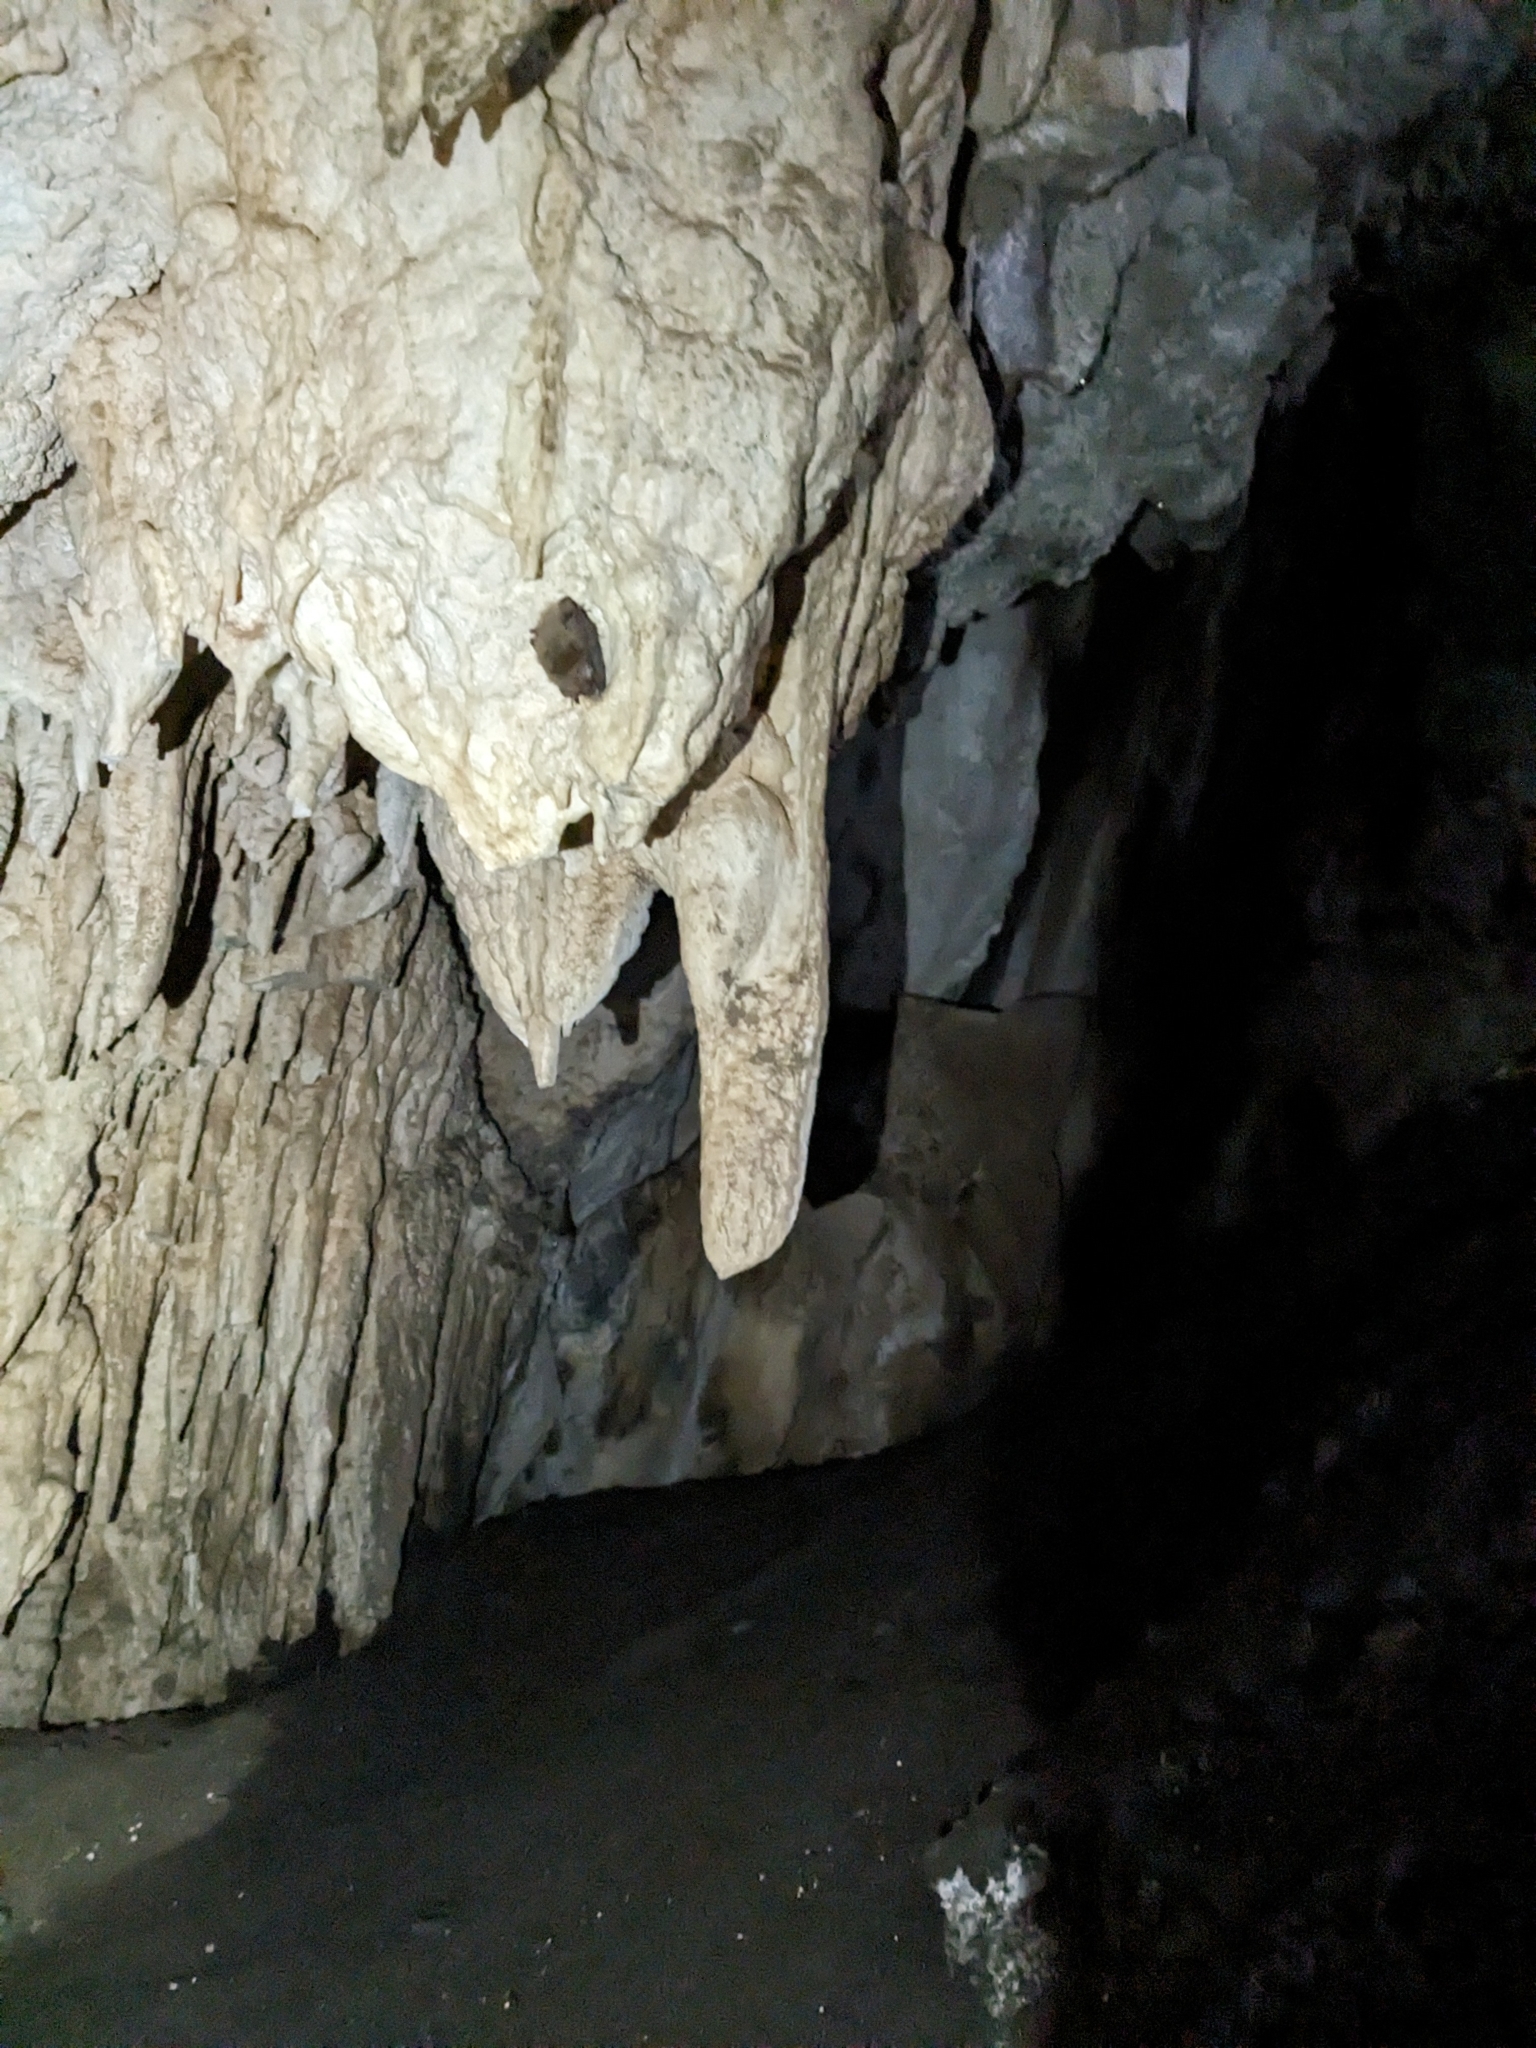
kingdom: Animalia
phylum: Chordata
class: Mammalia
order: Chiroptera
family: Vespertilionidae
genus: Corynorhinus
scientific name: Corynorhinus townsendii
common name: Townsend's big-eared bat
